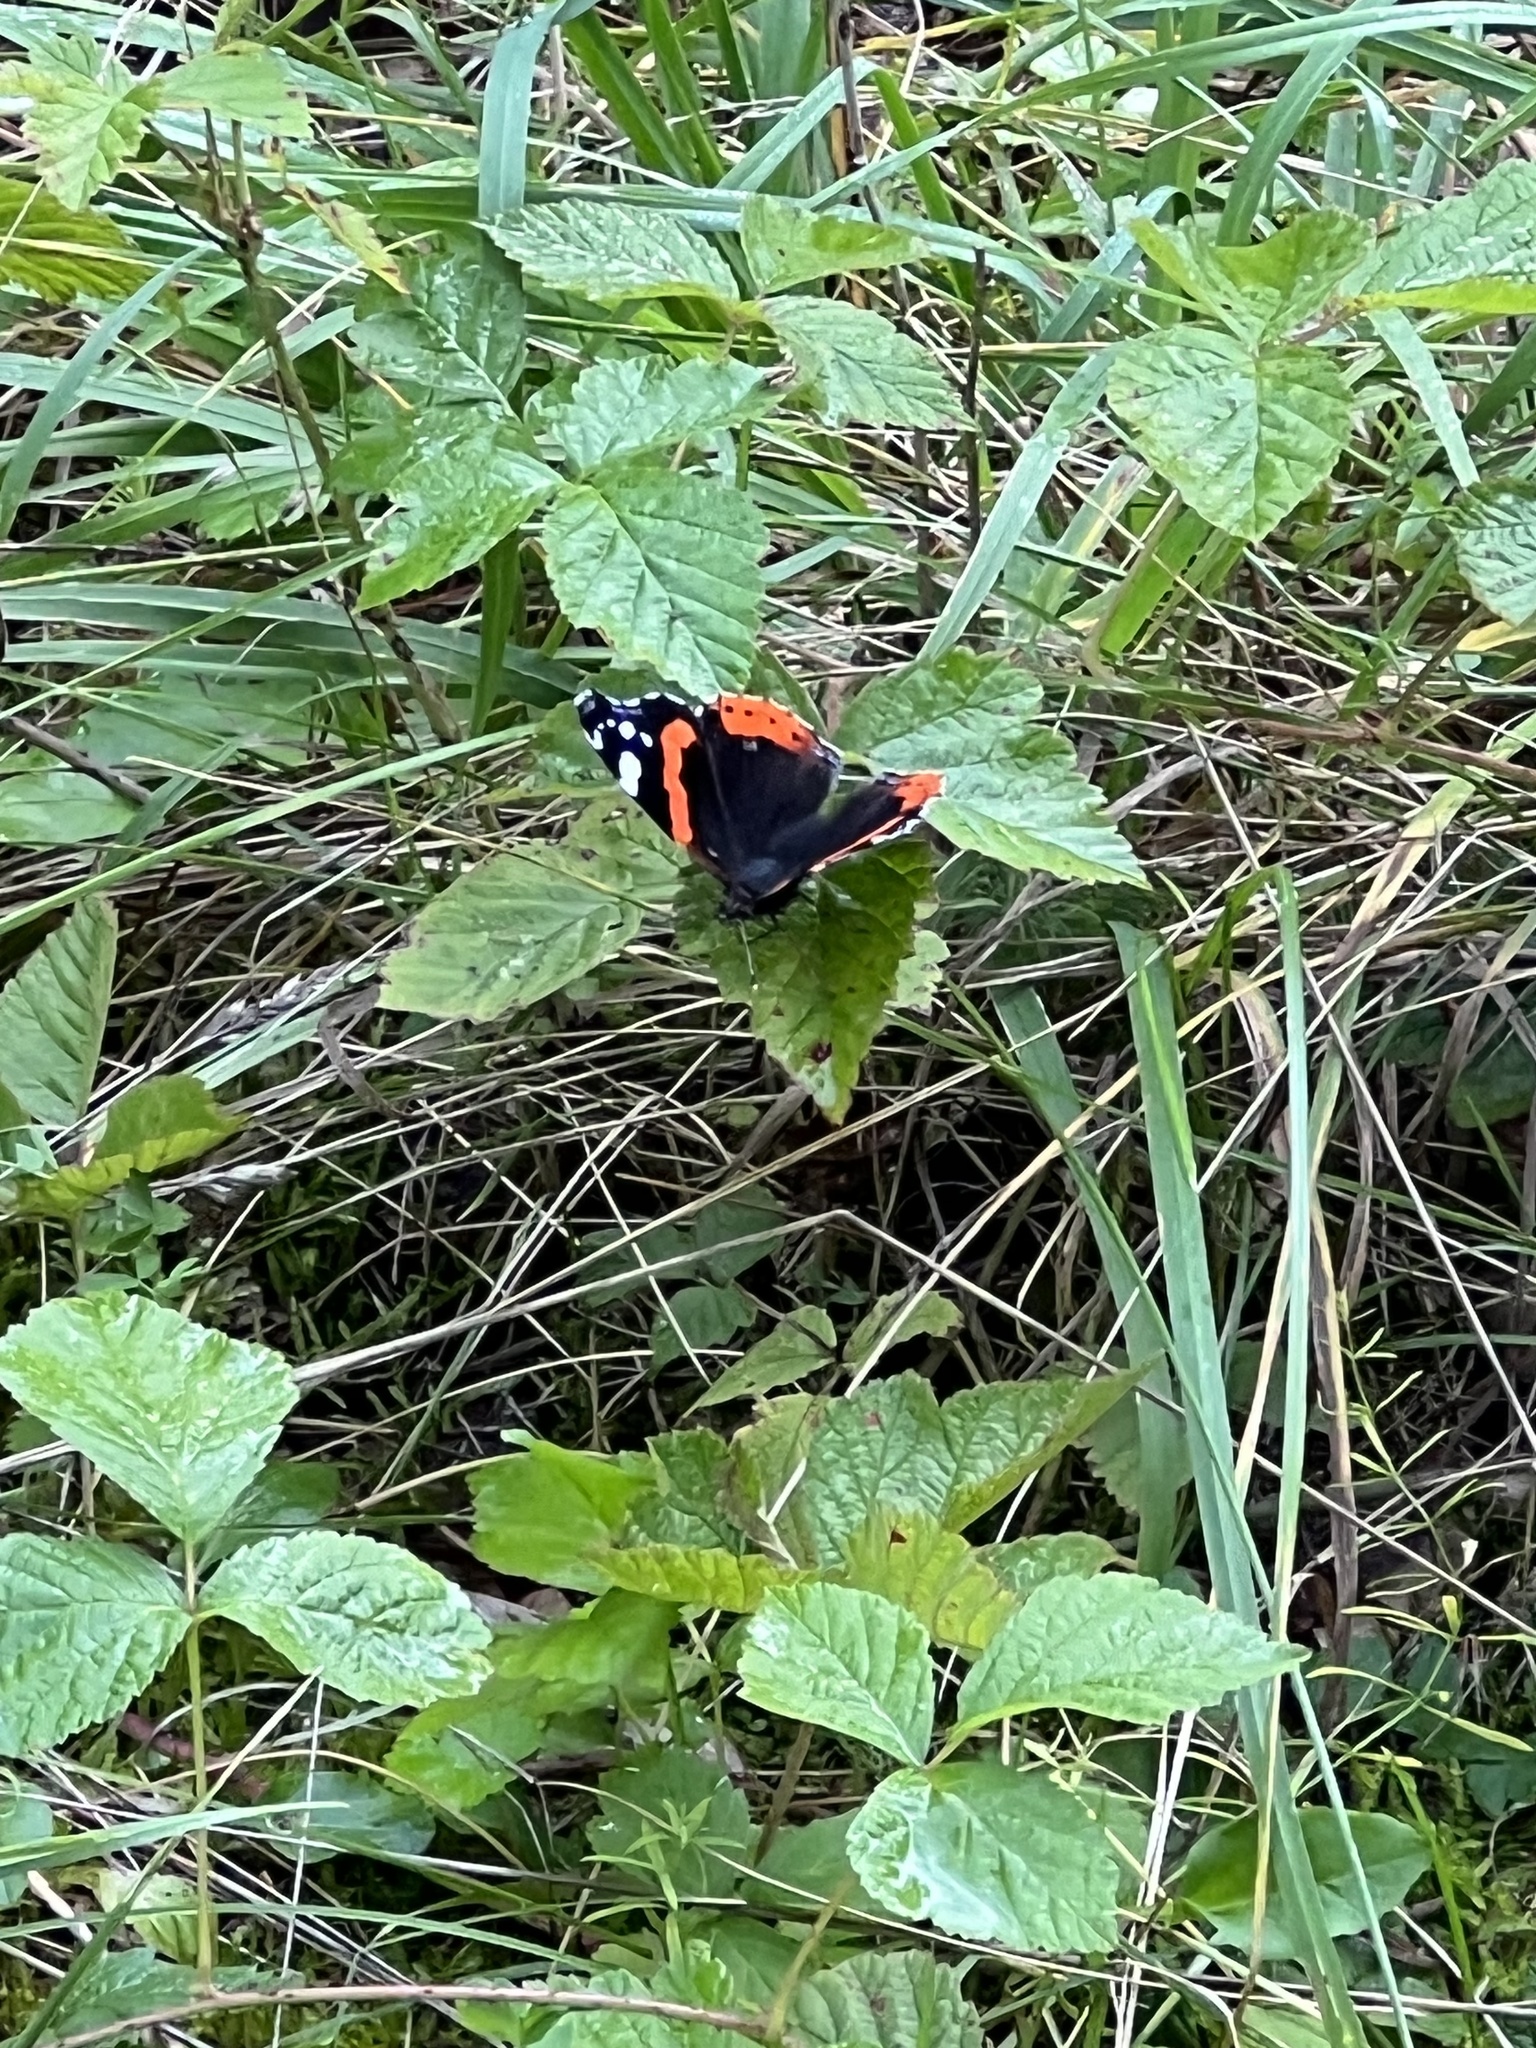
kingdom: Animalia
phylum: Arthropoda
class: Insecta
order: Lepidoptera
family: Nymphalidae
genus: Vanessa
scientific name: Vanessa atalanta
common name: Red admiral
